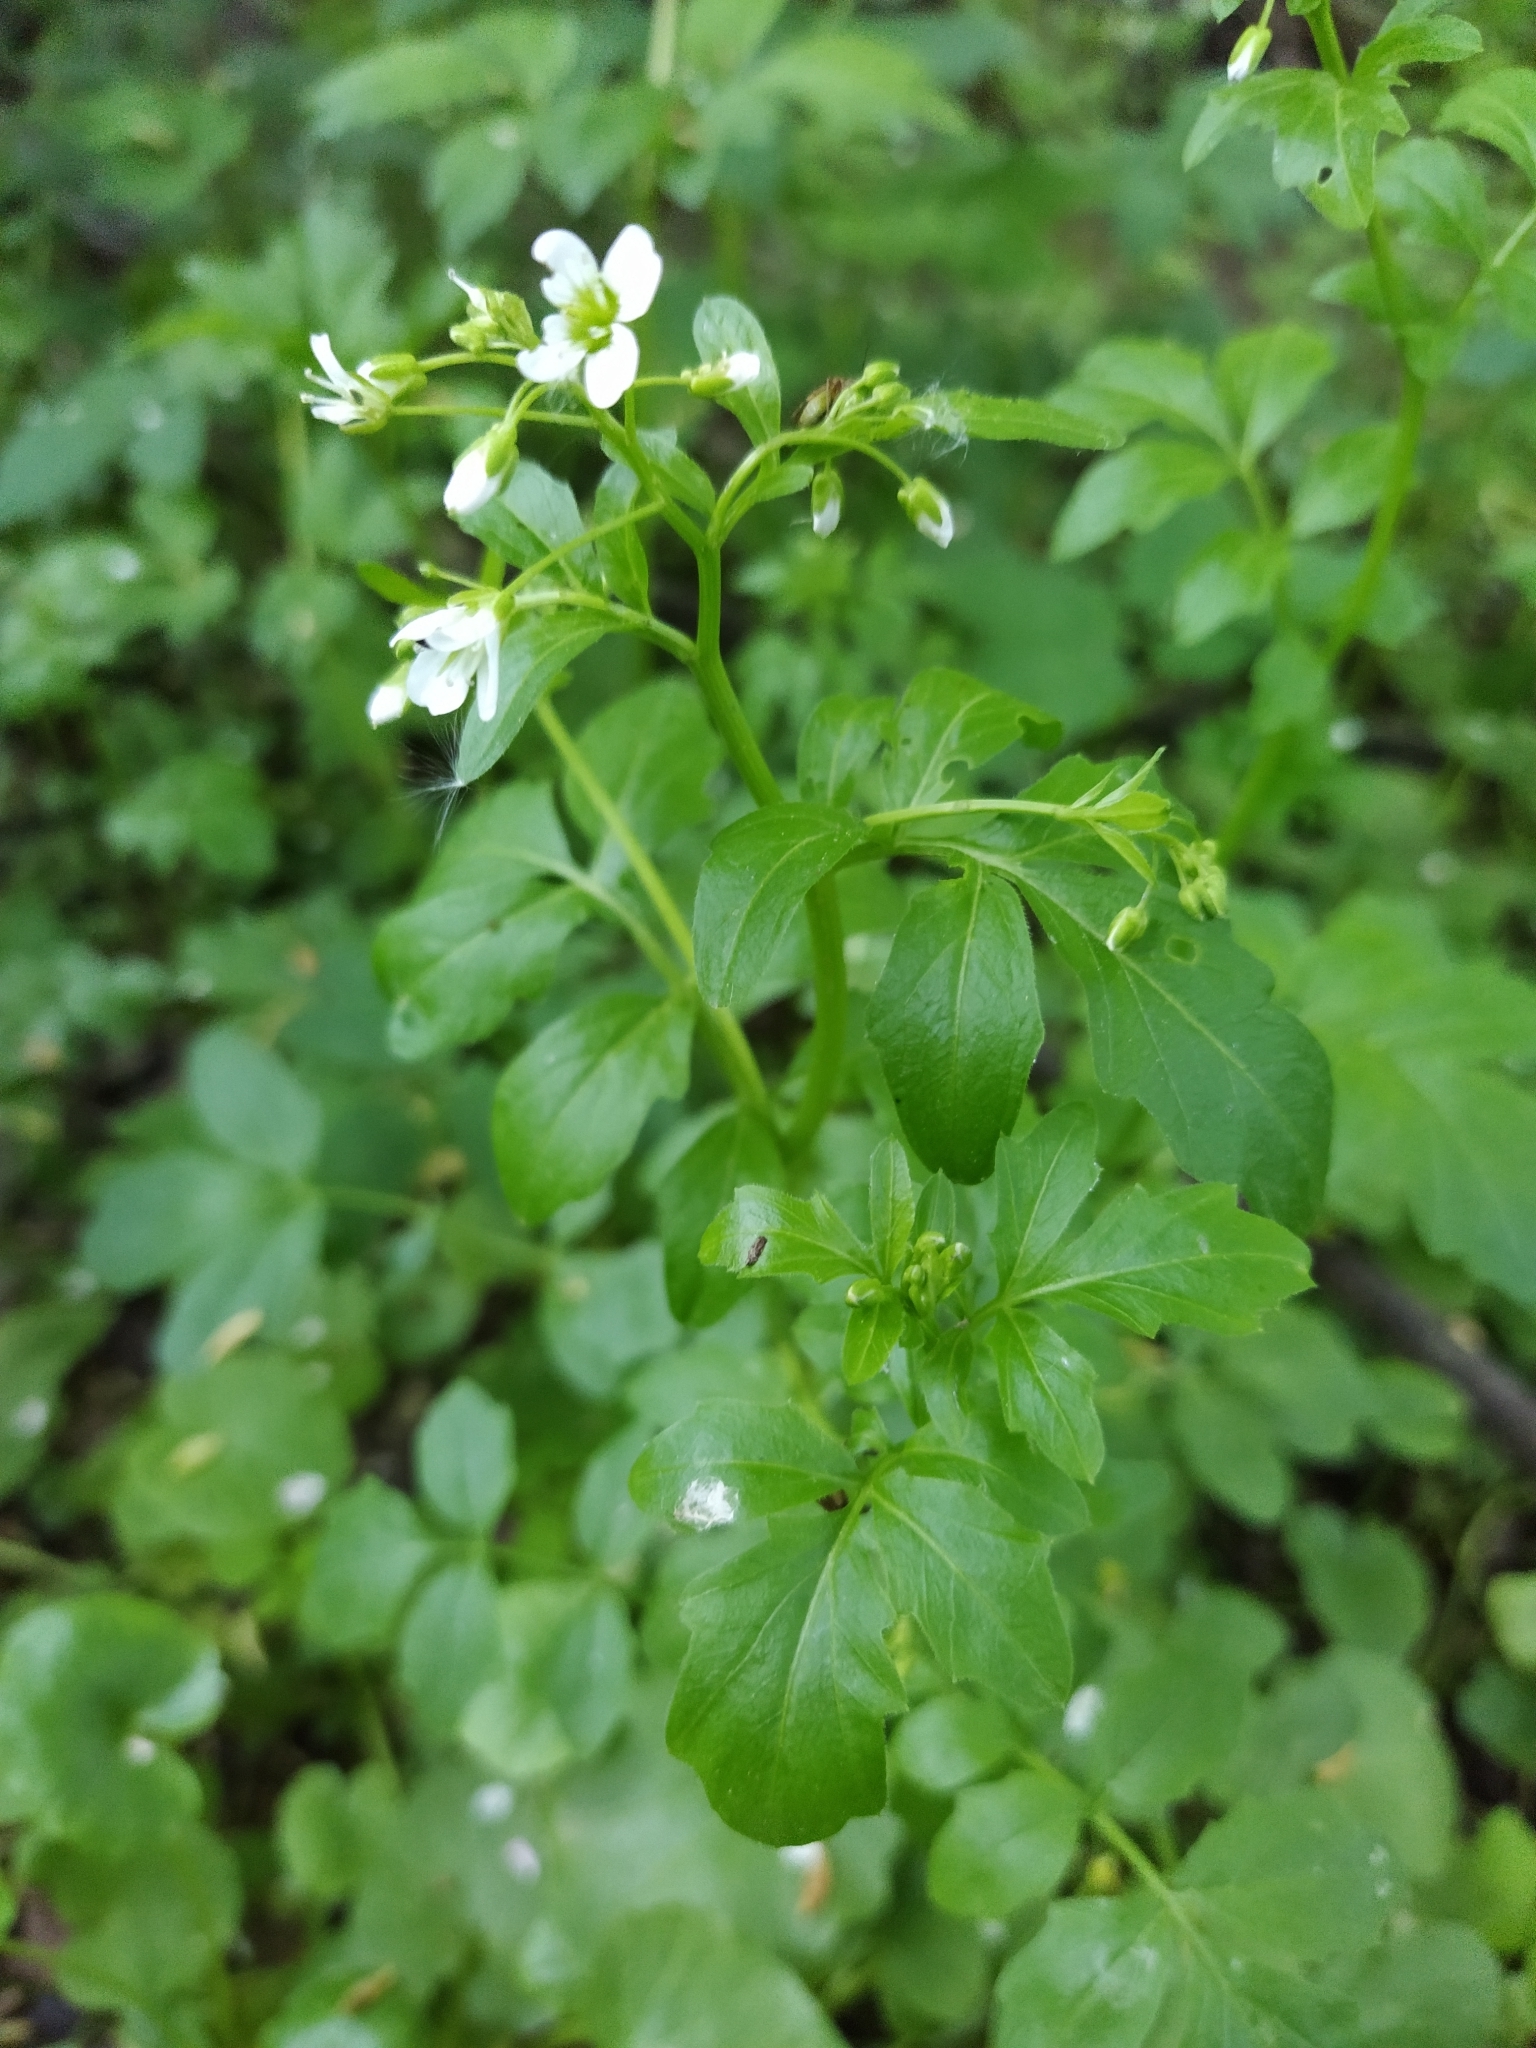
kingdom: Plantae
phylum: Tracheophyta
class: Magnoliopsida
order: Brassicales
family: Brassicaceae
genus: Cardamine
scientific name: Cardamine amara
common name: Large bitter-cress
